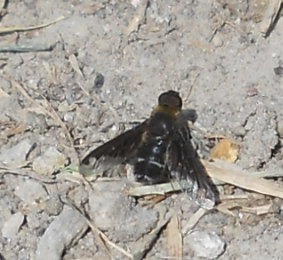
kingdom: Animalia
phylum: Arthropoda
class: Insecta
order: Diptera
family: Bombyliidae
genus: Hemipenthes
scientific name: Hemipenthes velutina
